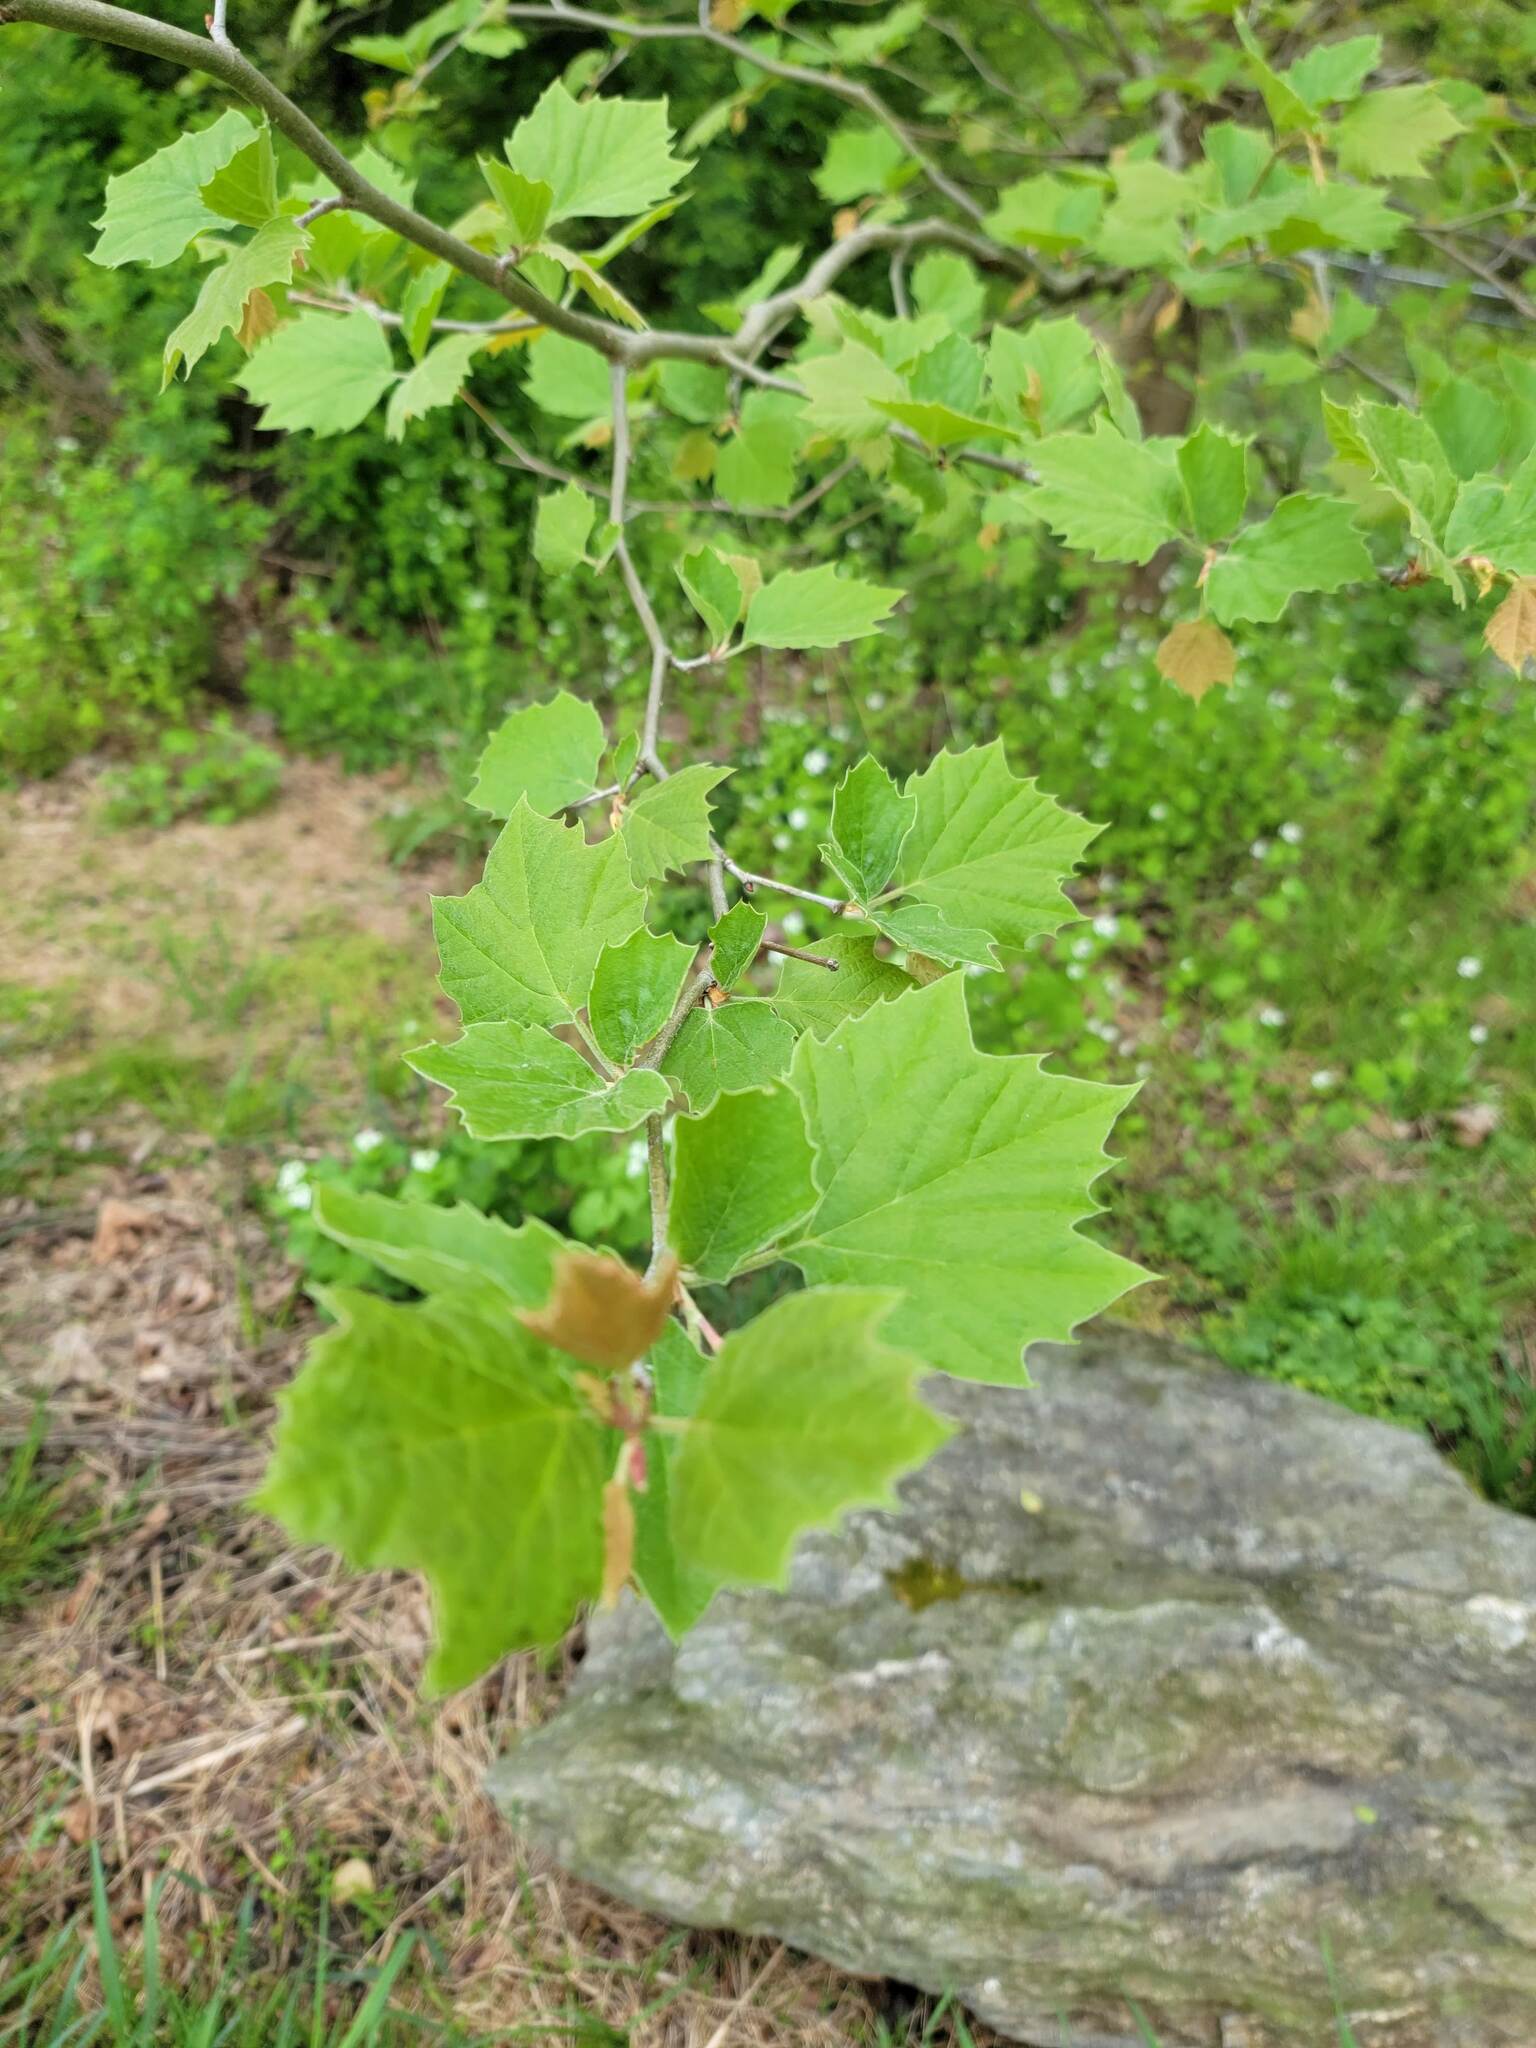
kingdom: Plantae
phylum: Tracheophyta
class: Magnoliopsida
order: Proteales
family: Platanaceae
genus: Platanus
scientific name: Platanus occidentalis
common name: American sycamore
